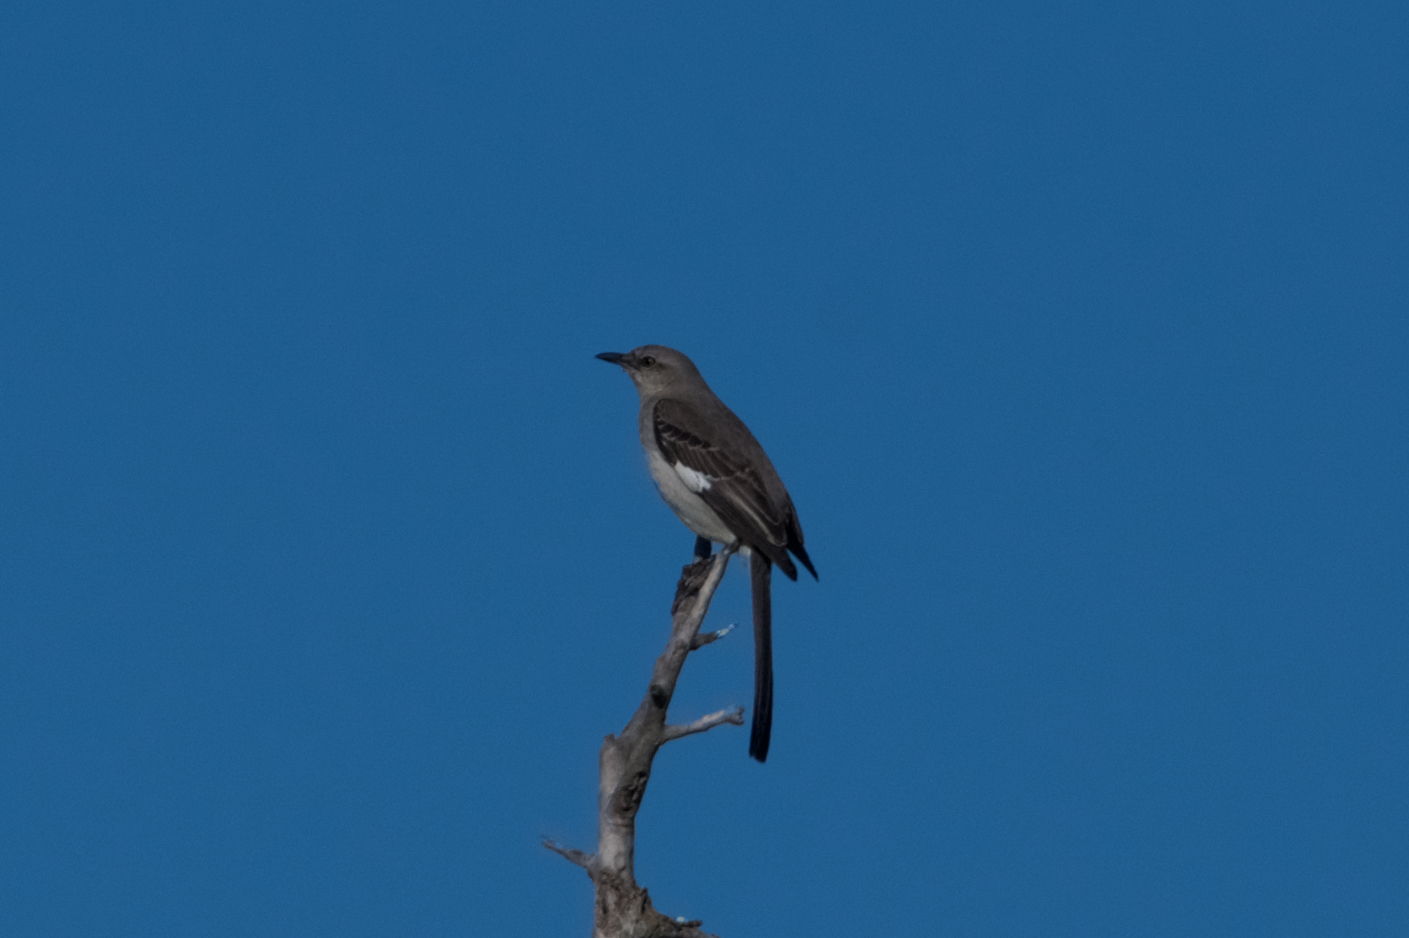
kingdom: Animalia
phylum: Chordata
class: Aves
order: Passeriformes
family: Mimidae
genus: Mimus
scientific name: Mimus polyglottos
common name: Northern mockingbird
